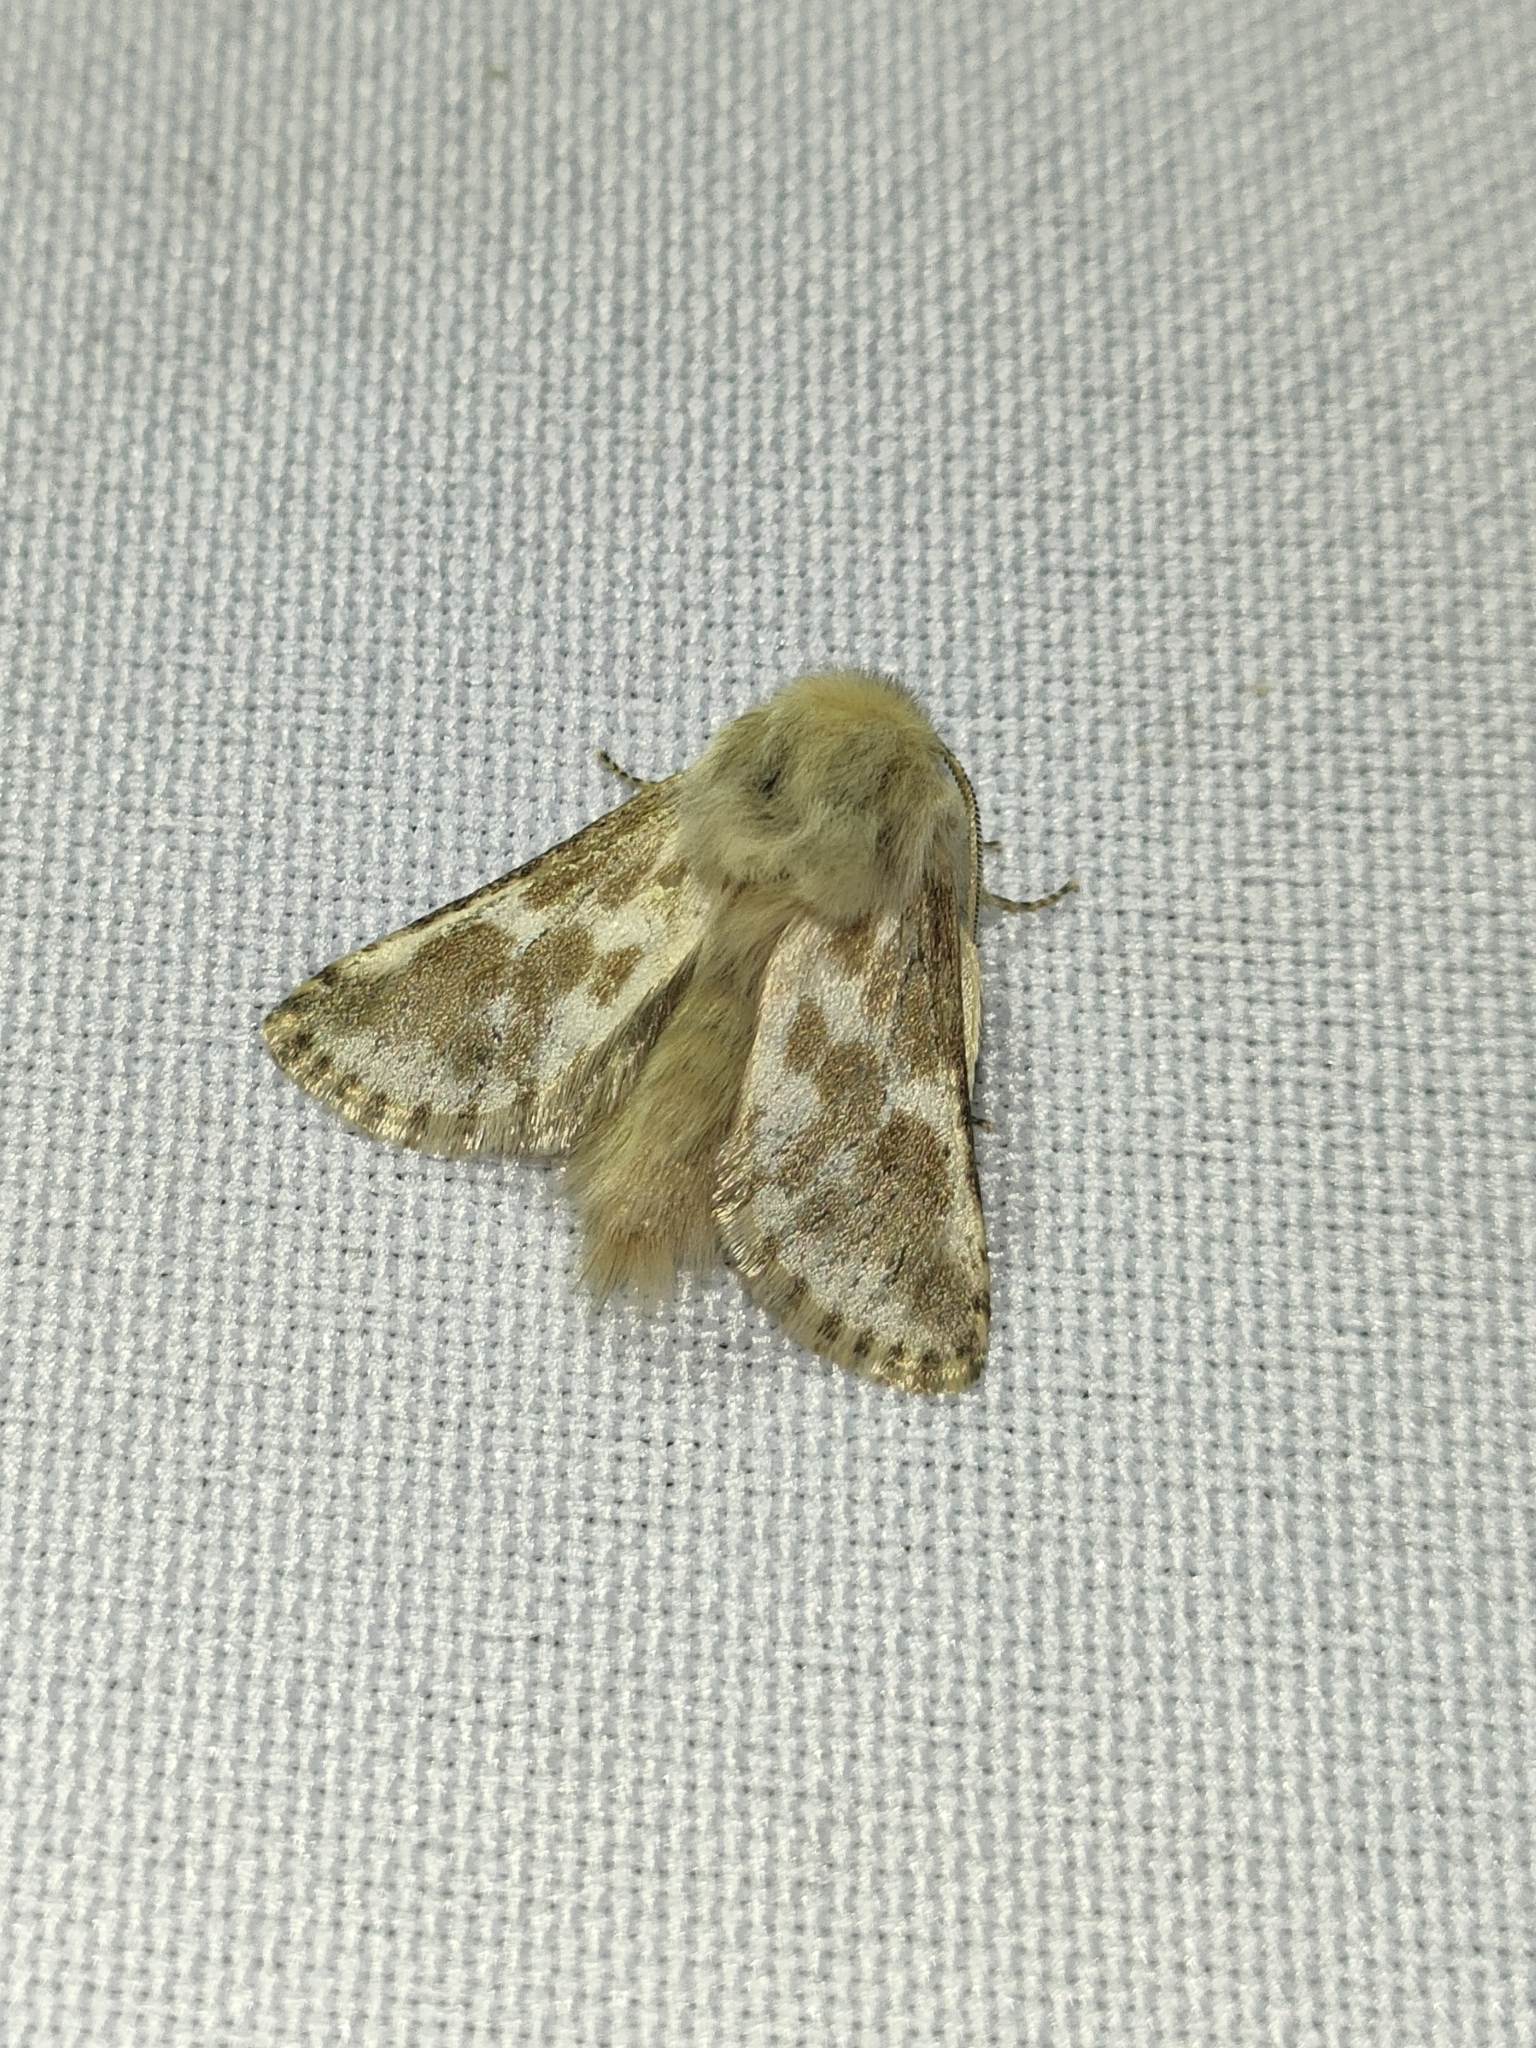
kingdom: Animalia
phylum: Arthropoda
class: Insecta
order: Lepidoptera
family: Cossidae
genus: Dyspessa
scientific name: Dyspessa ulula
